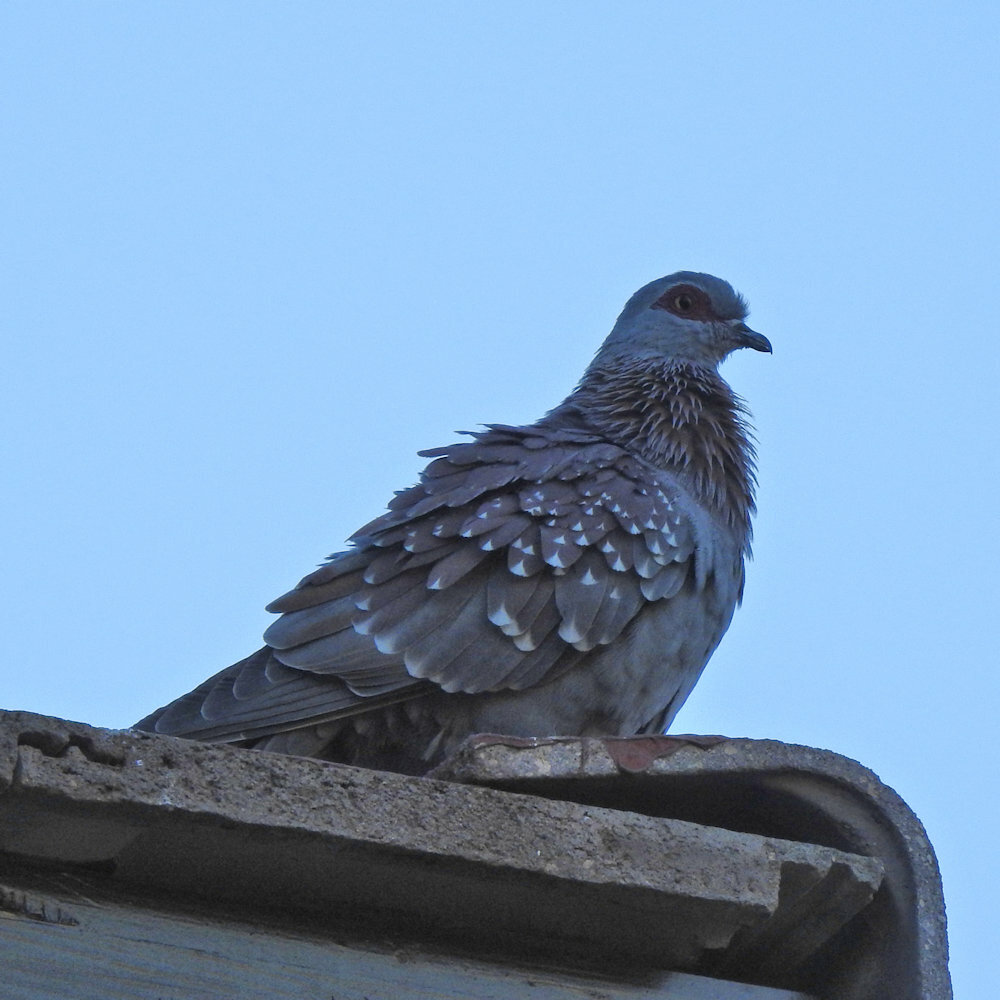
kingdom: Animalia
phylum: Chordata
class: Aves
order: Columbiformes
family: Columbidae
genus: Columba
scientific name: Columba guinea
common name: Speckled pigeon
